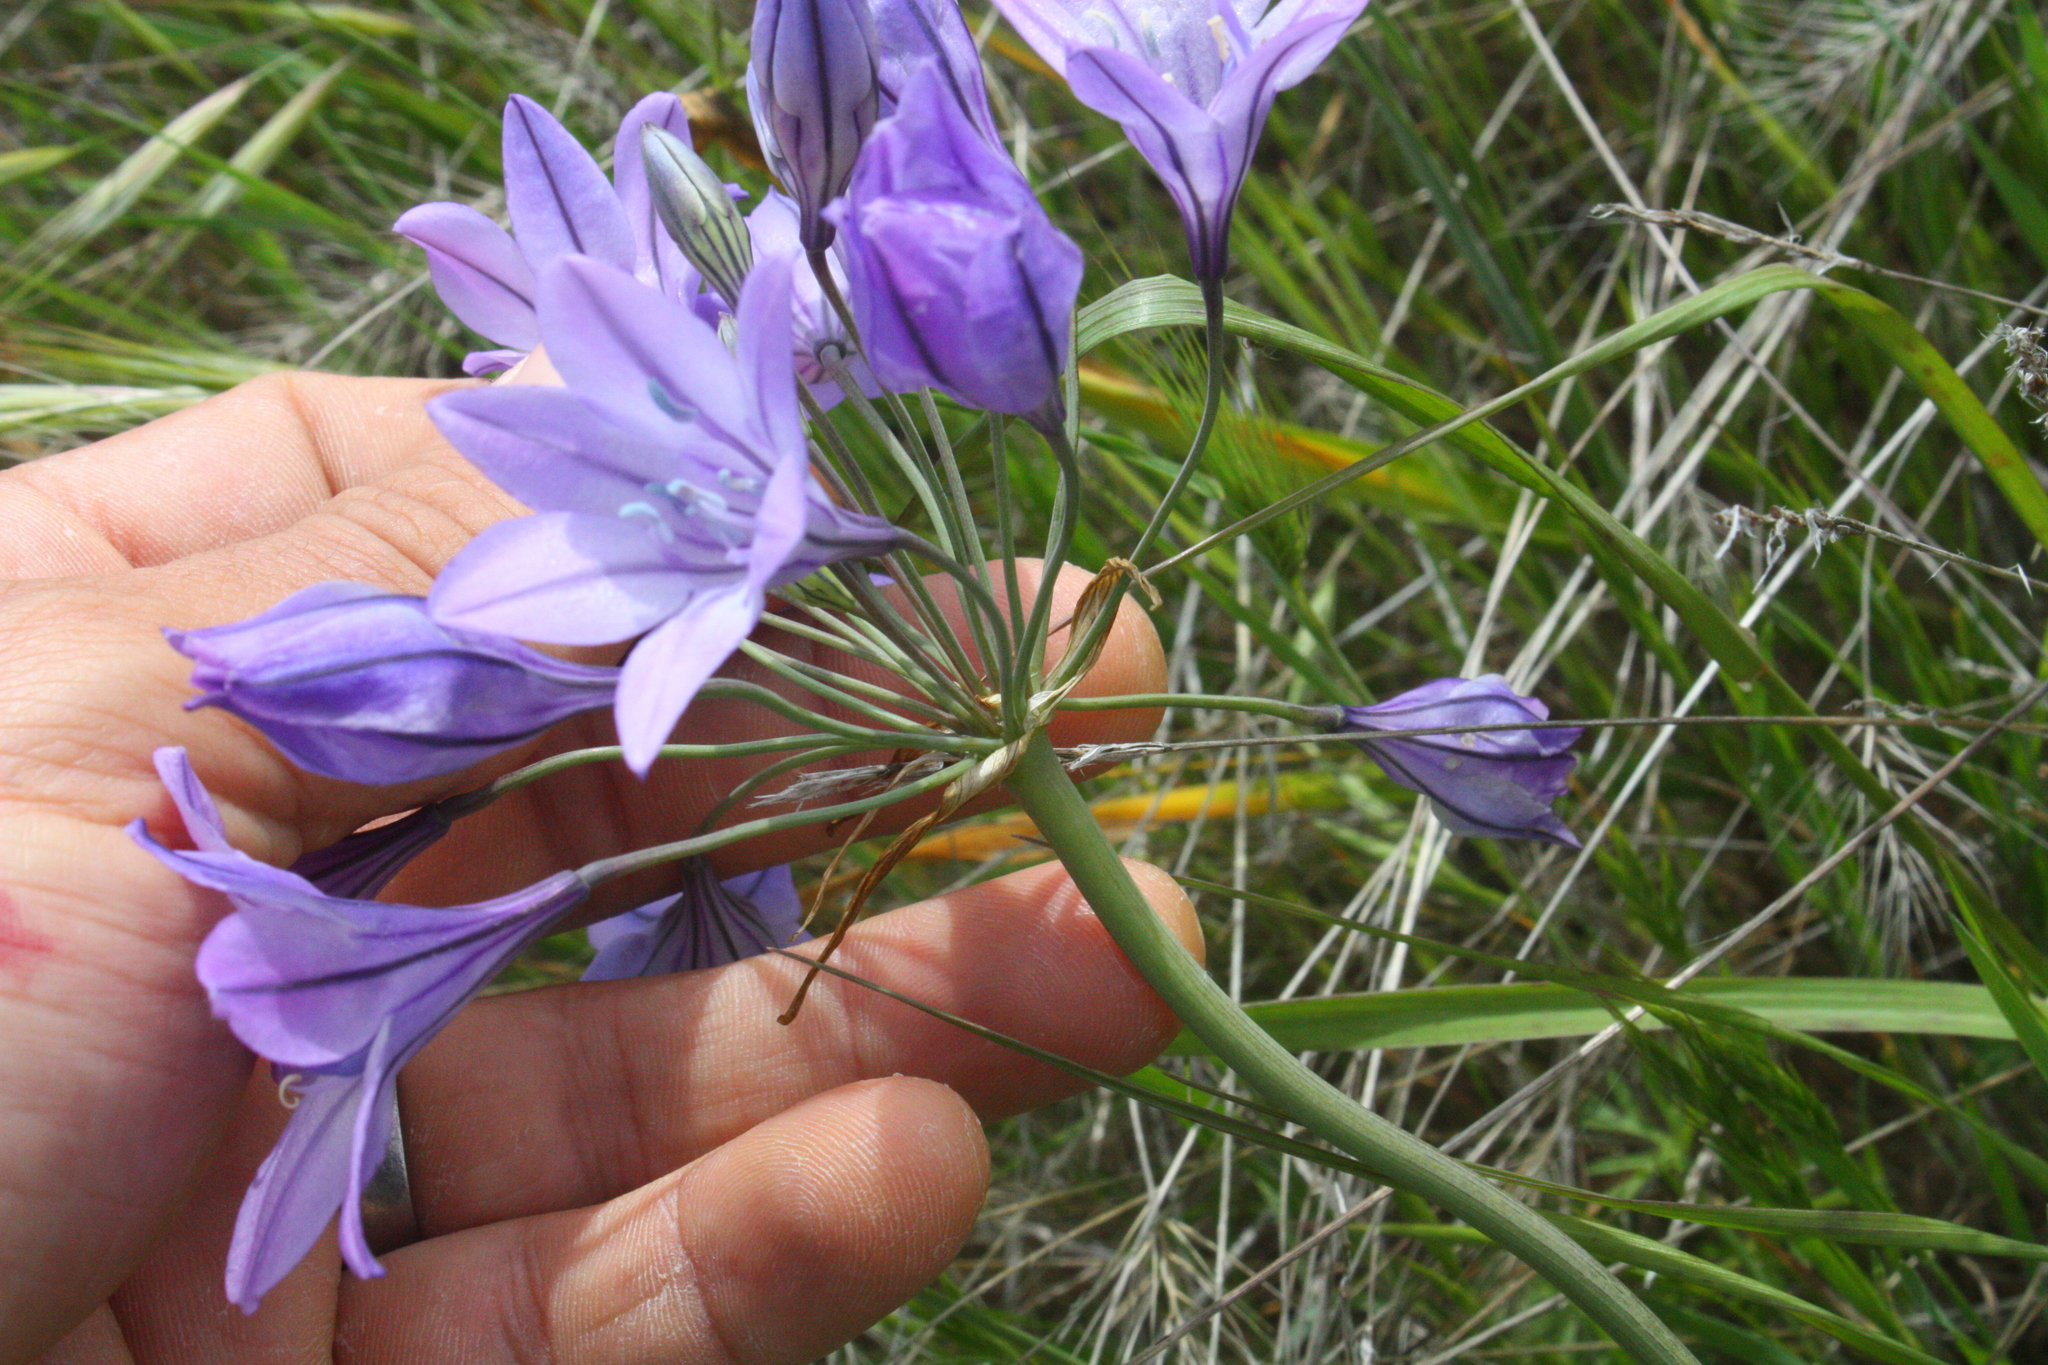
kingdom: Plantae
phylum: Tracheophyta
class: Liliopsida
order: Asparagales
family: Asparagaceae
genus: Triteleia
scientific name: Triteleia laxa
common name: Triplet-lily
